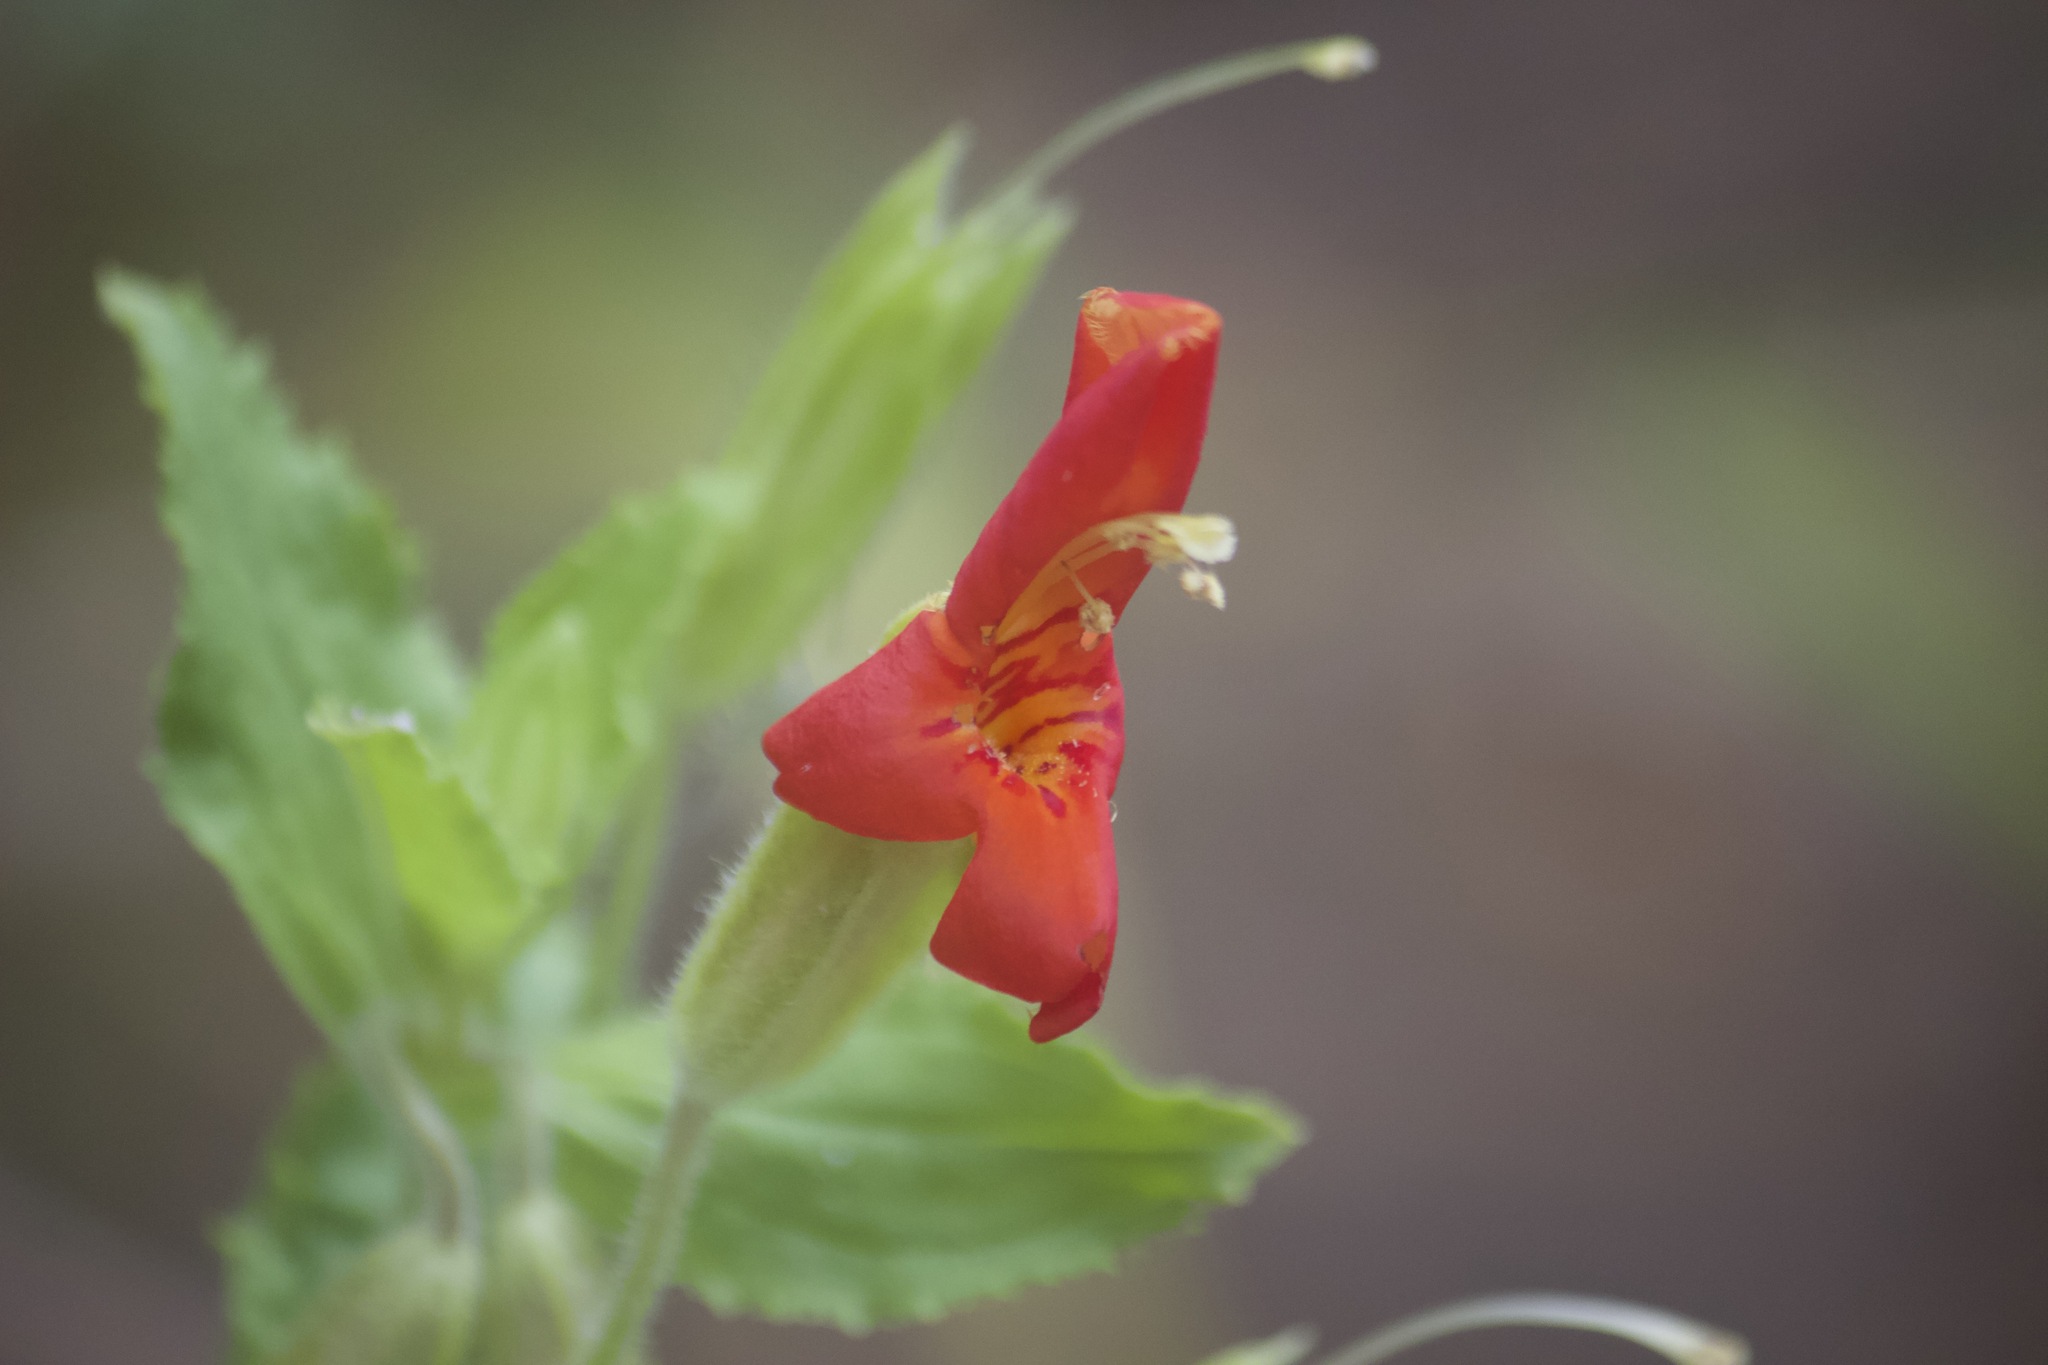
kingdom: Plantae
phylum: Tracheophyta
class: Magnoliopsida
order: Lamiales
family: Phrymaceae
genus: Erythranthe
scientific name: Erythranthe cardinalis
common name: Scarlet monkey-flower
